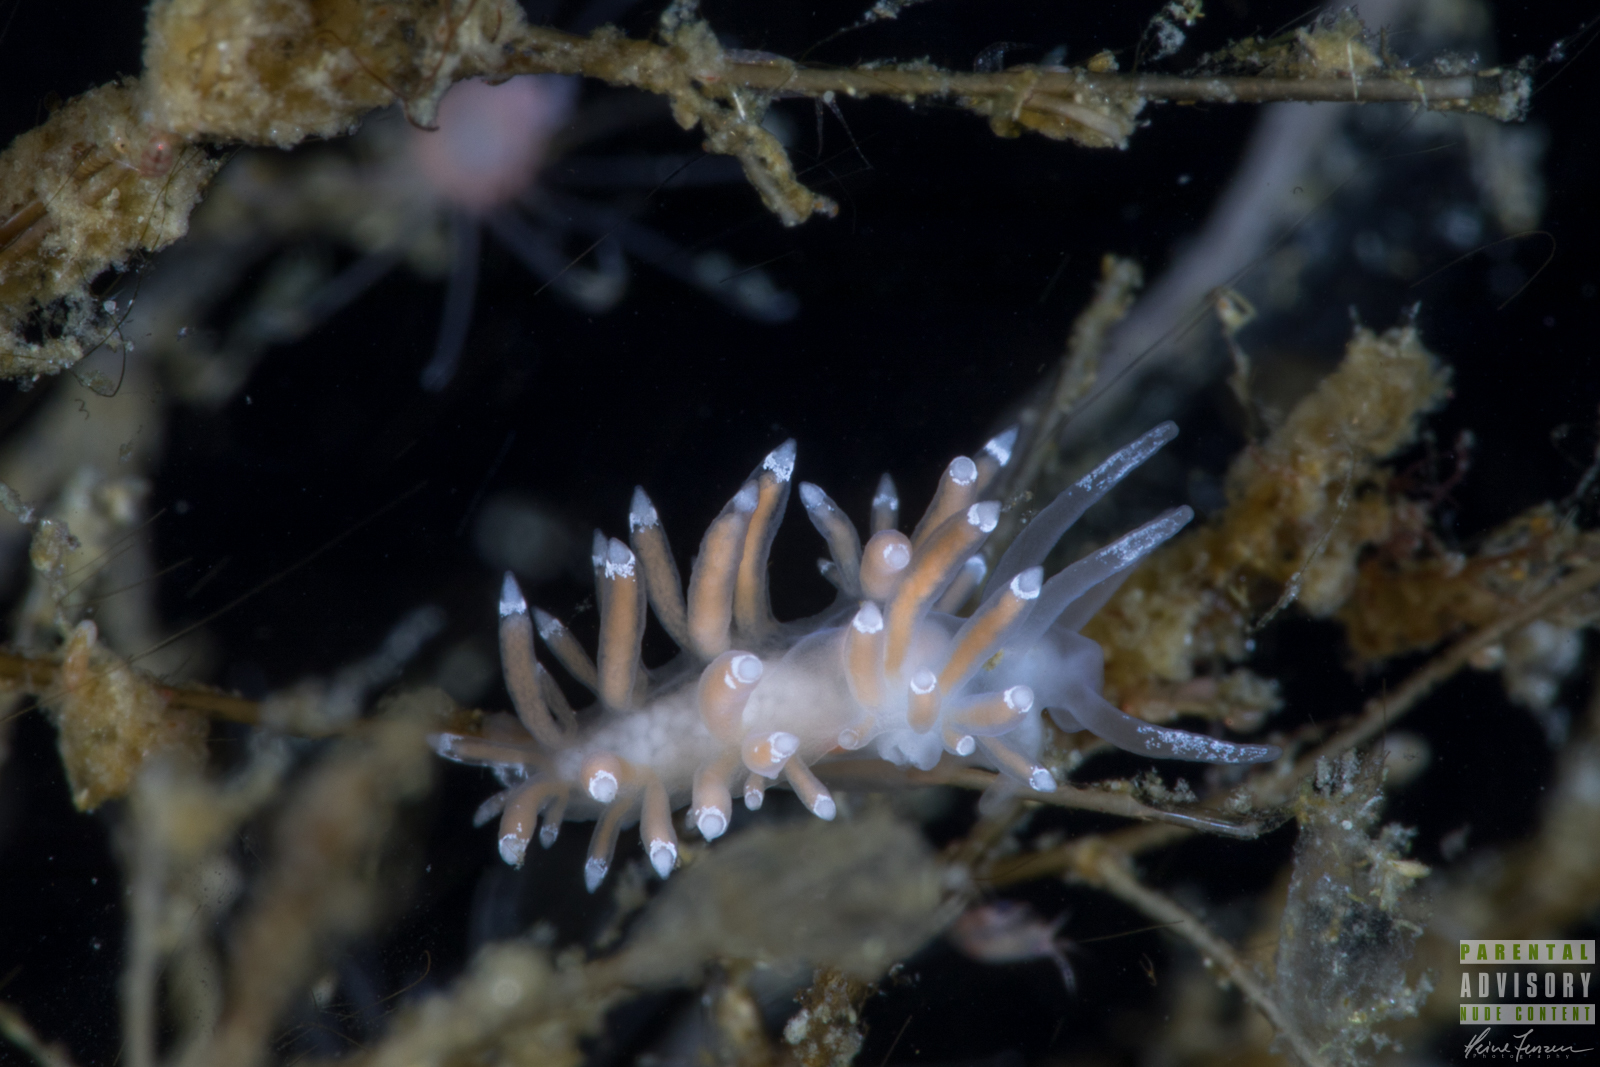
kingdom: Animalia
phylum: Mollusca
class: Gastropoda
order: Nudibranchia
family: Coryphellidae
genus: Coryphella
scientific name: Coryphella gracilis
